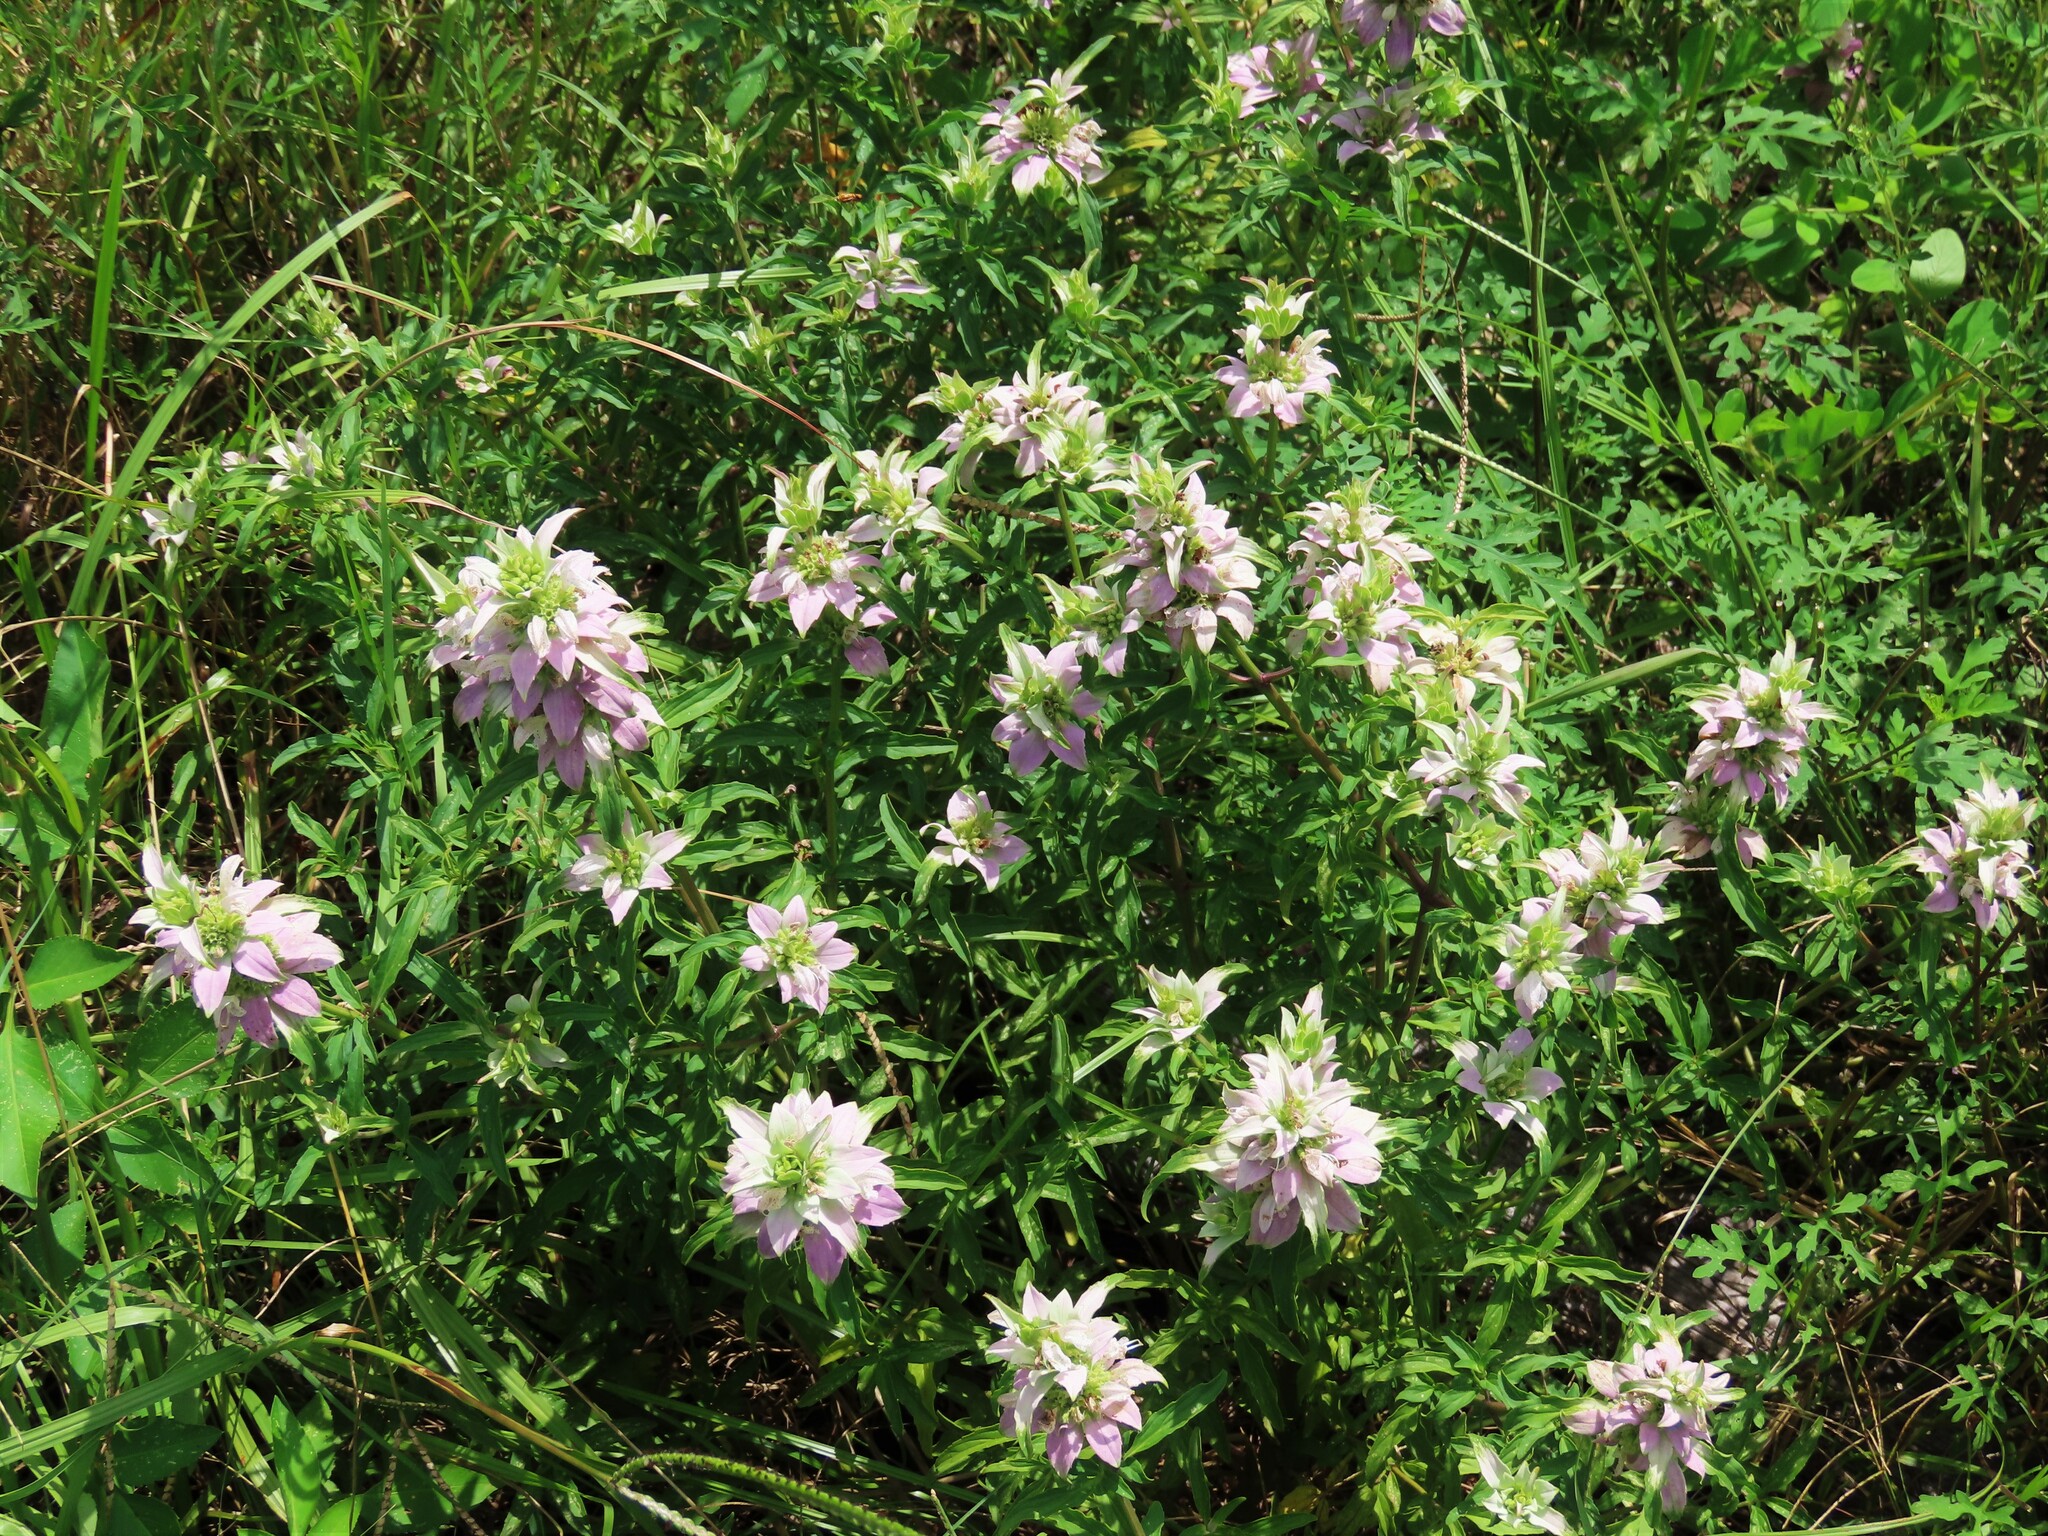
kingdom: Plantae
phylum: Tracheophyta
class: Magnoliopsida
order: Lamiales
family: Lamiaceae
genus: Monarda
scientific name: Monarda punctata
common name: Dotted monarda
